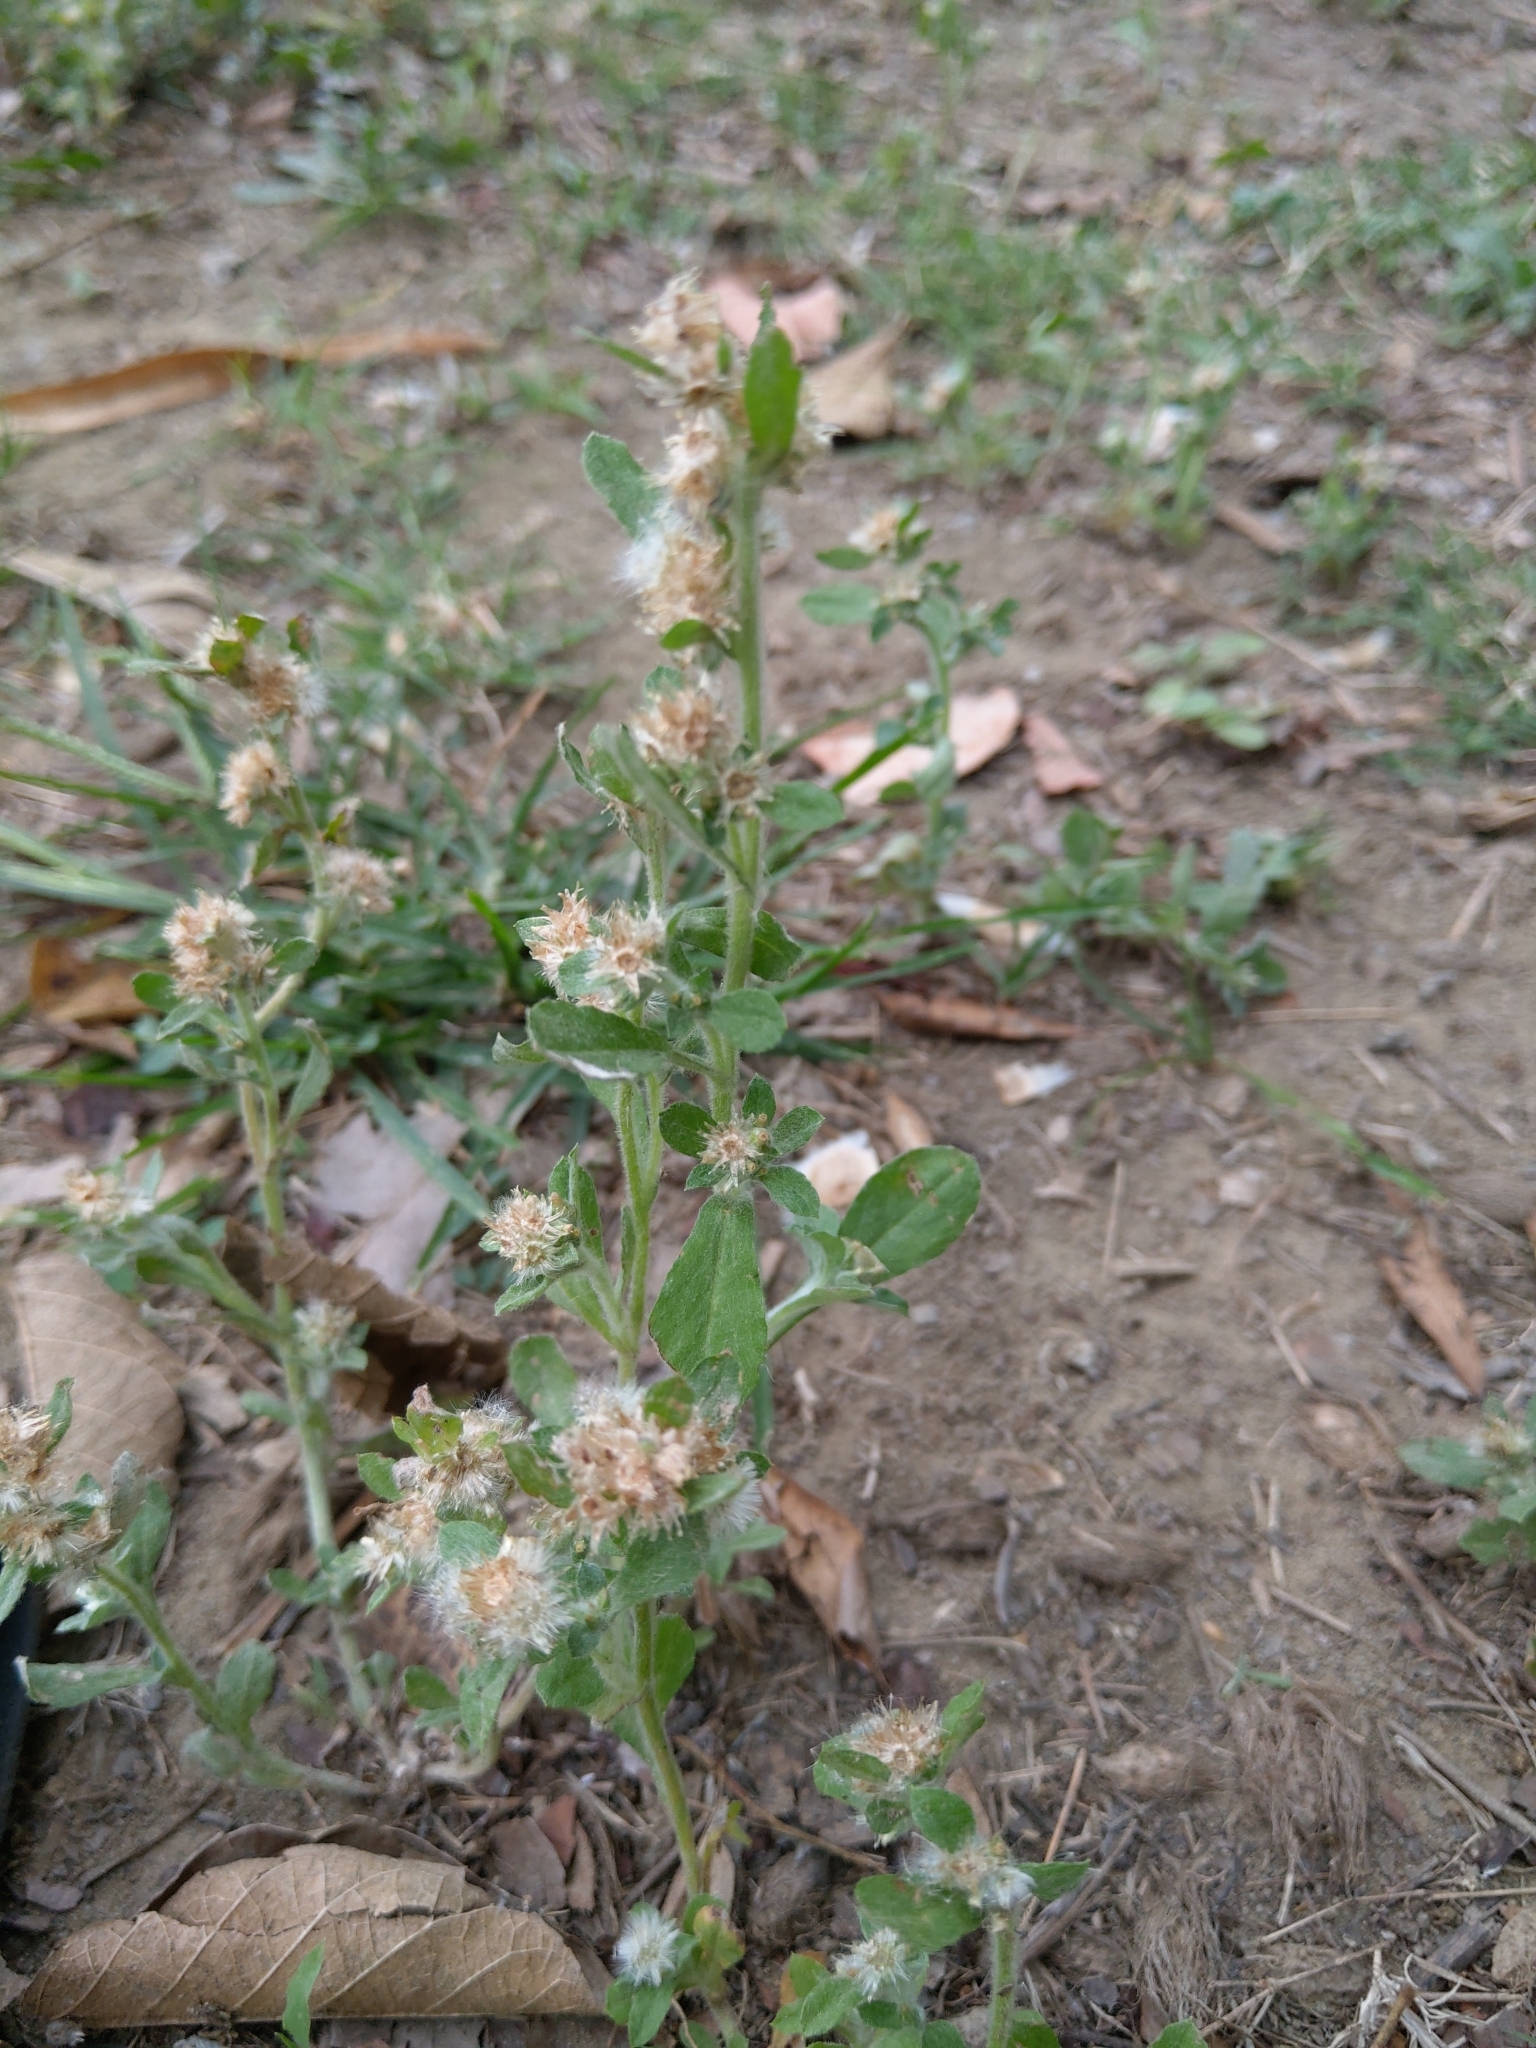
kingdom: Plantae
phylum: Tracheophyta
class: Magnoliopsida
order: Asterales
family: Asteraceae
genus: Gamochaeta
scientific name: Gamochaeta pensylvanica
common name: Pennsylvania everlasting
